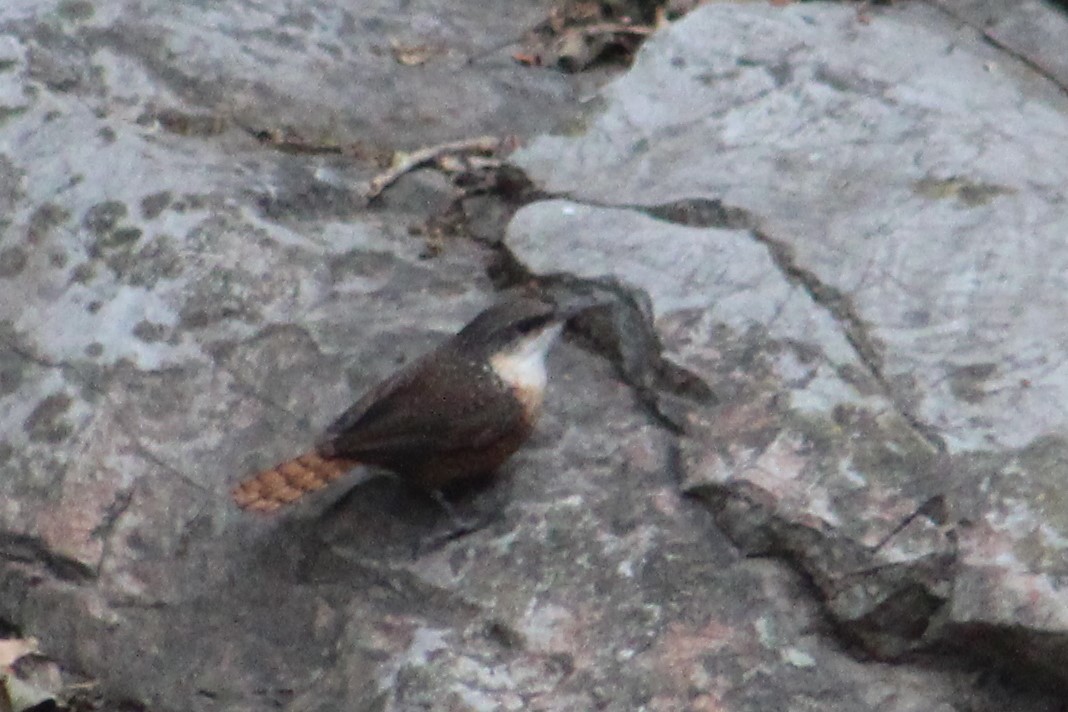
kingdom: Animalia
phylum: Chordata
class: Aves
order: Passeriformes
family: Troglodytidae
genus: Catherpes
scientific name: Catherpes mexicanus
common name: Canyon wren
